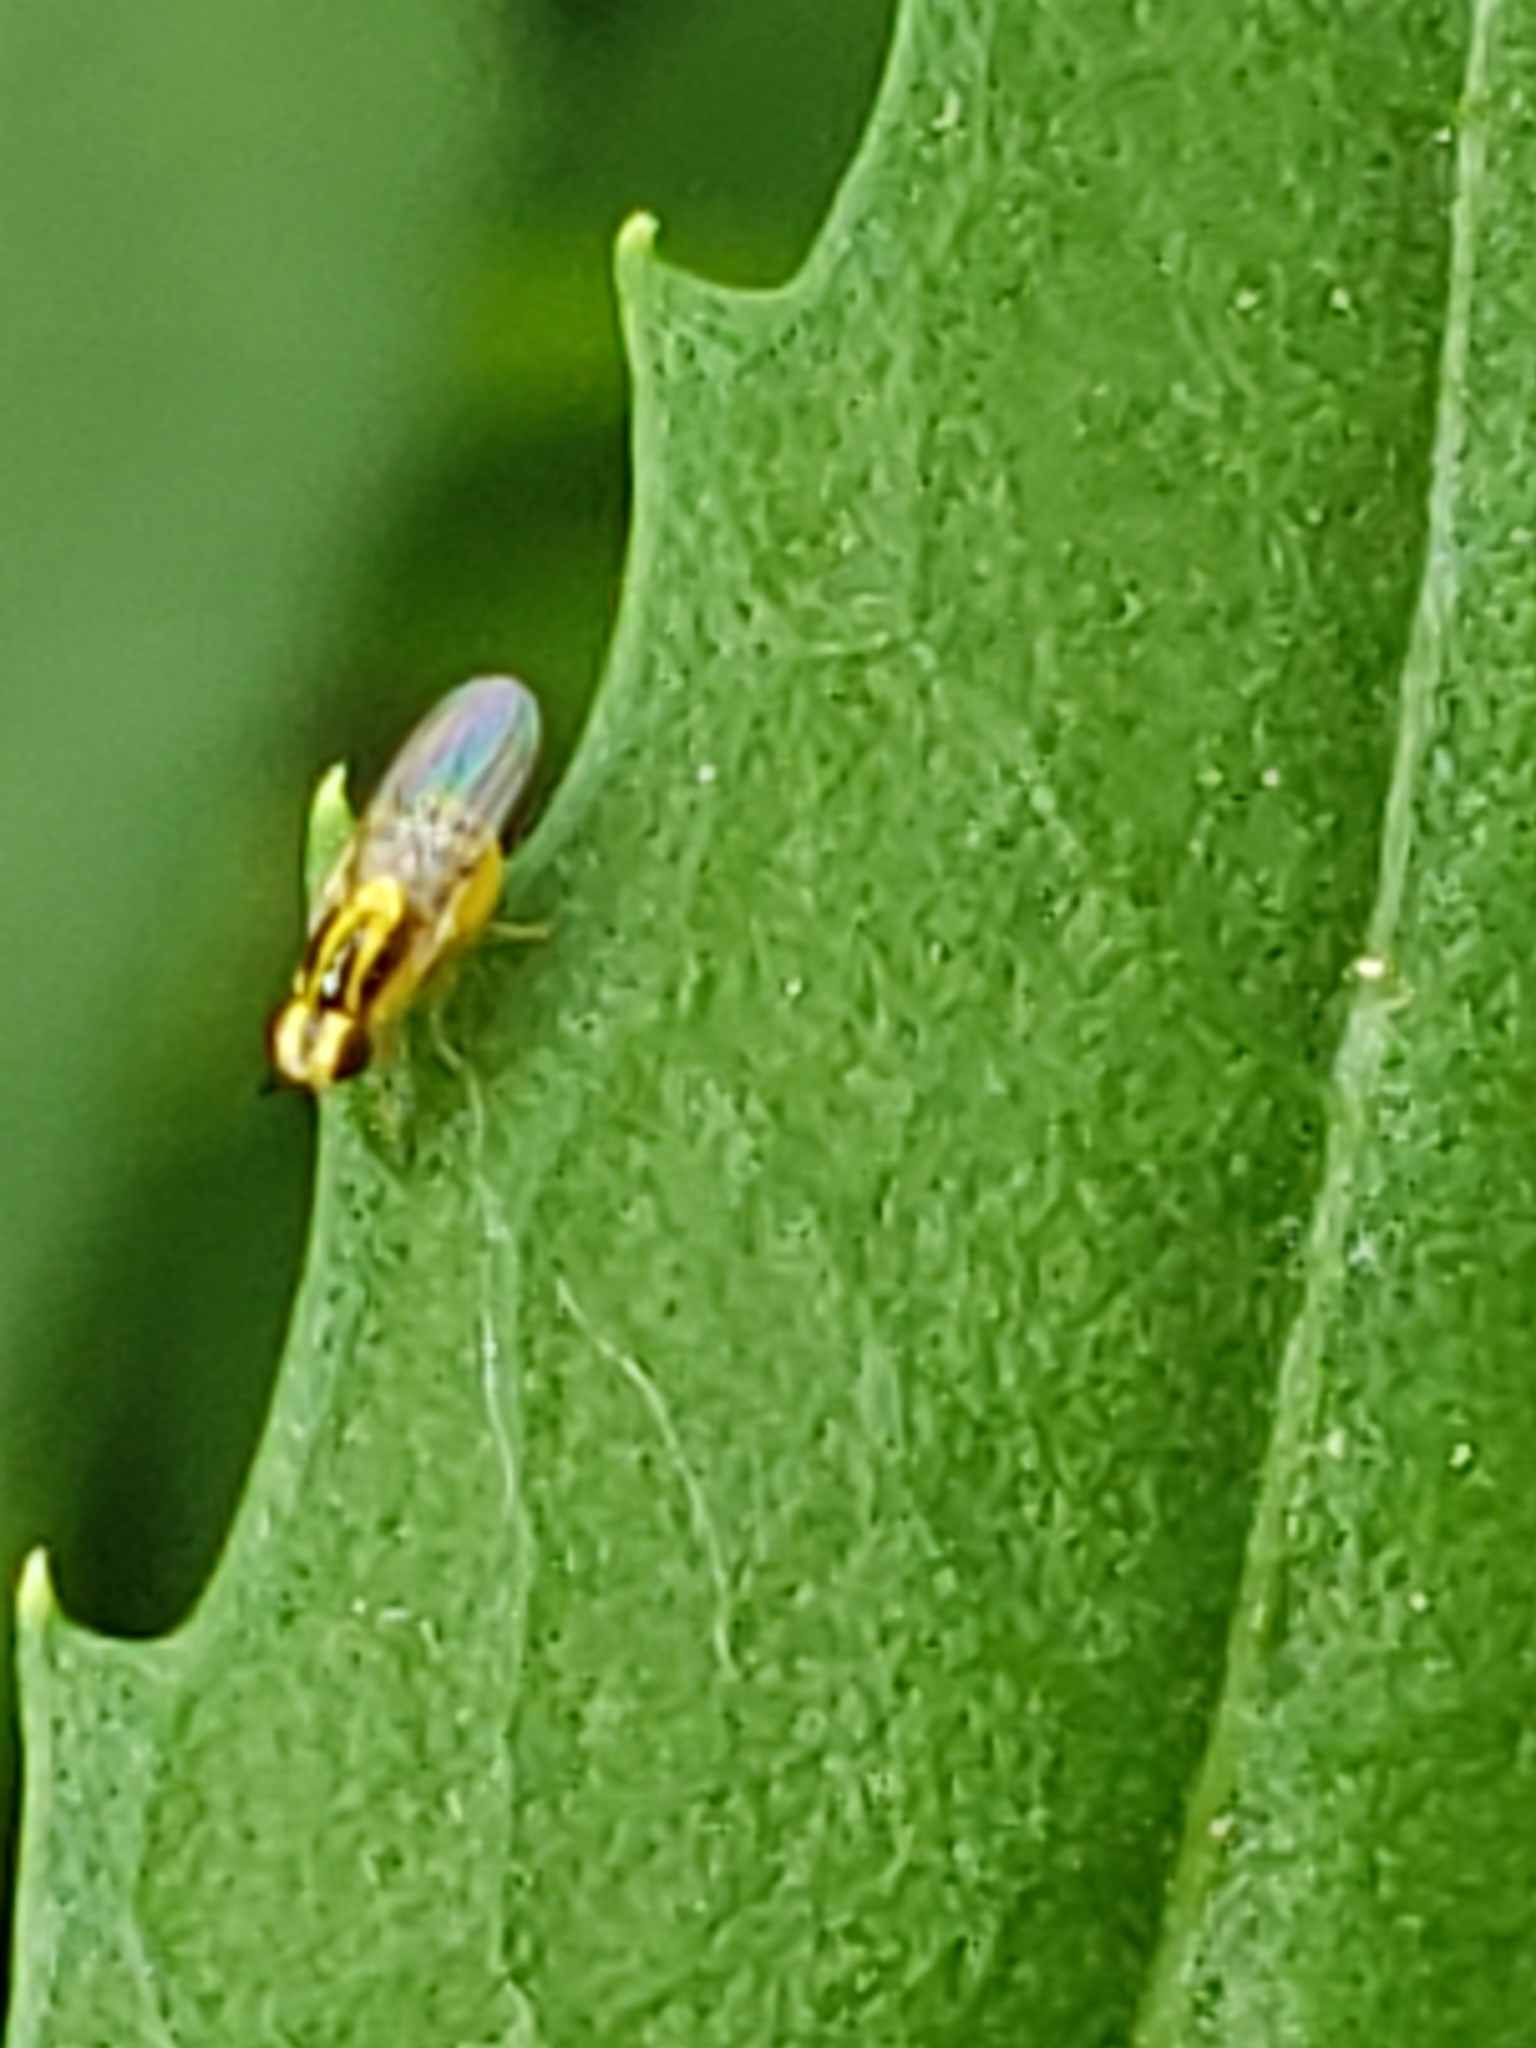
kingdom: Animalia
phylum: Arthropoda
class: Insecta
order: Diptera
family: Chloropidae
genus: Thaumatomyia
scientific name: Thaumatomyia glabra
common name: Chloropid fly
